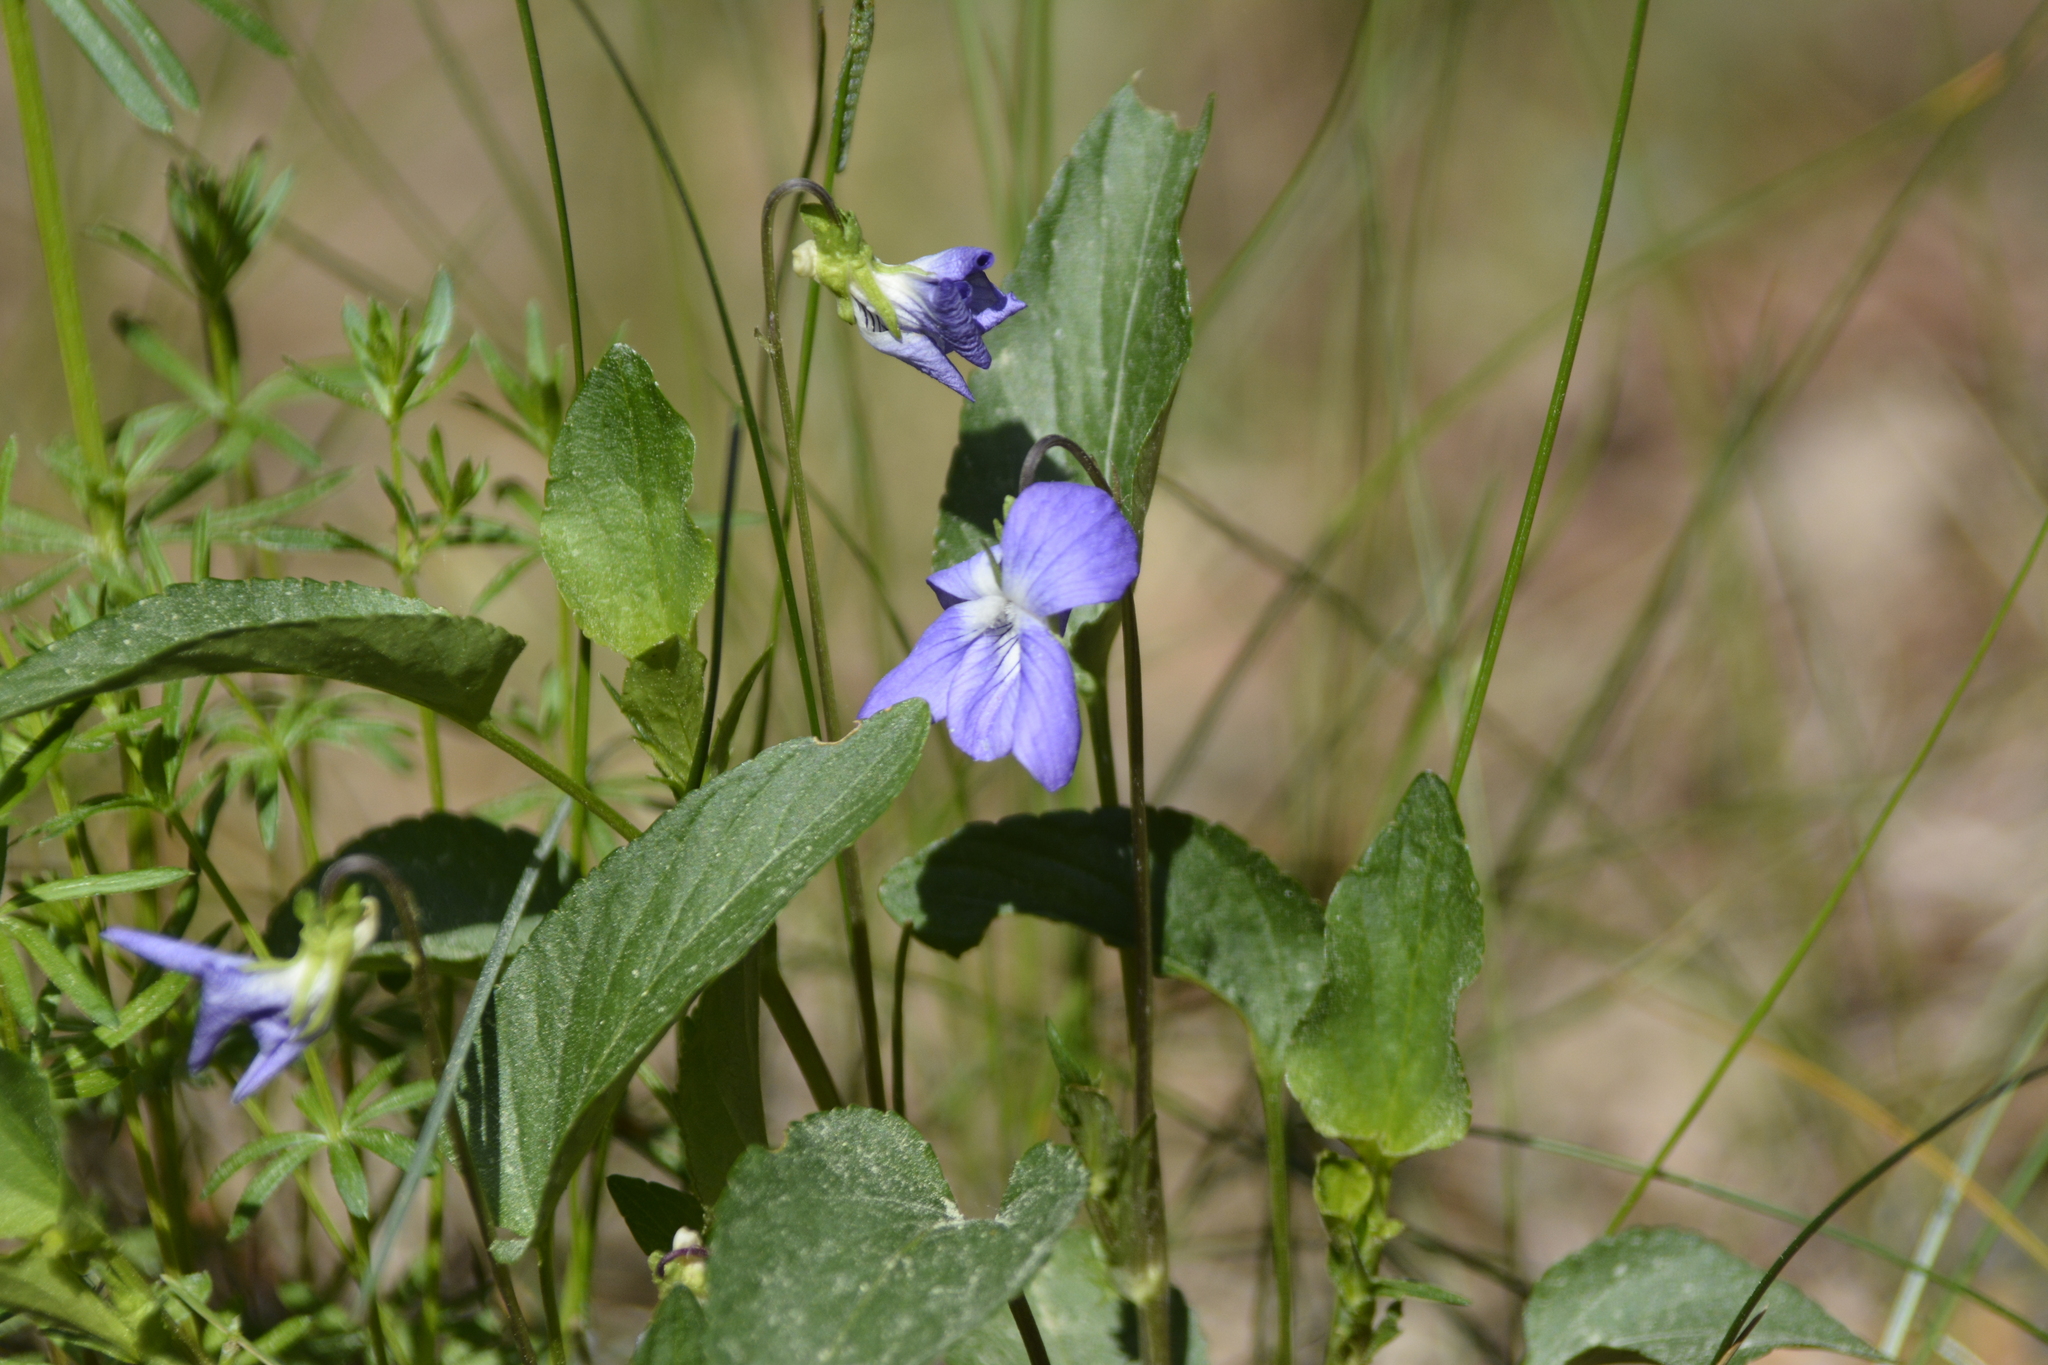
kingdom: Plantae
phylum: Tracheophyta
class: Magnoliopsida
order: Malpighiales
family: Violaceae
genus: Viola
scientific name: Viola canina
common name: Heath dog-violet
